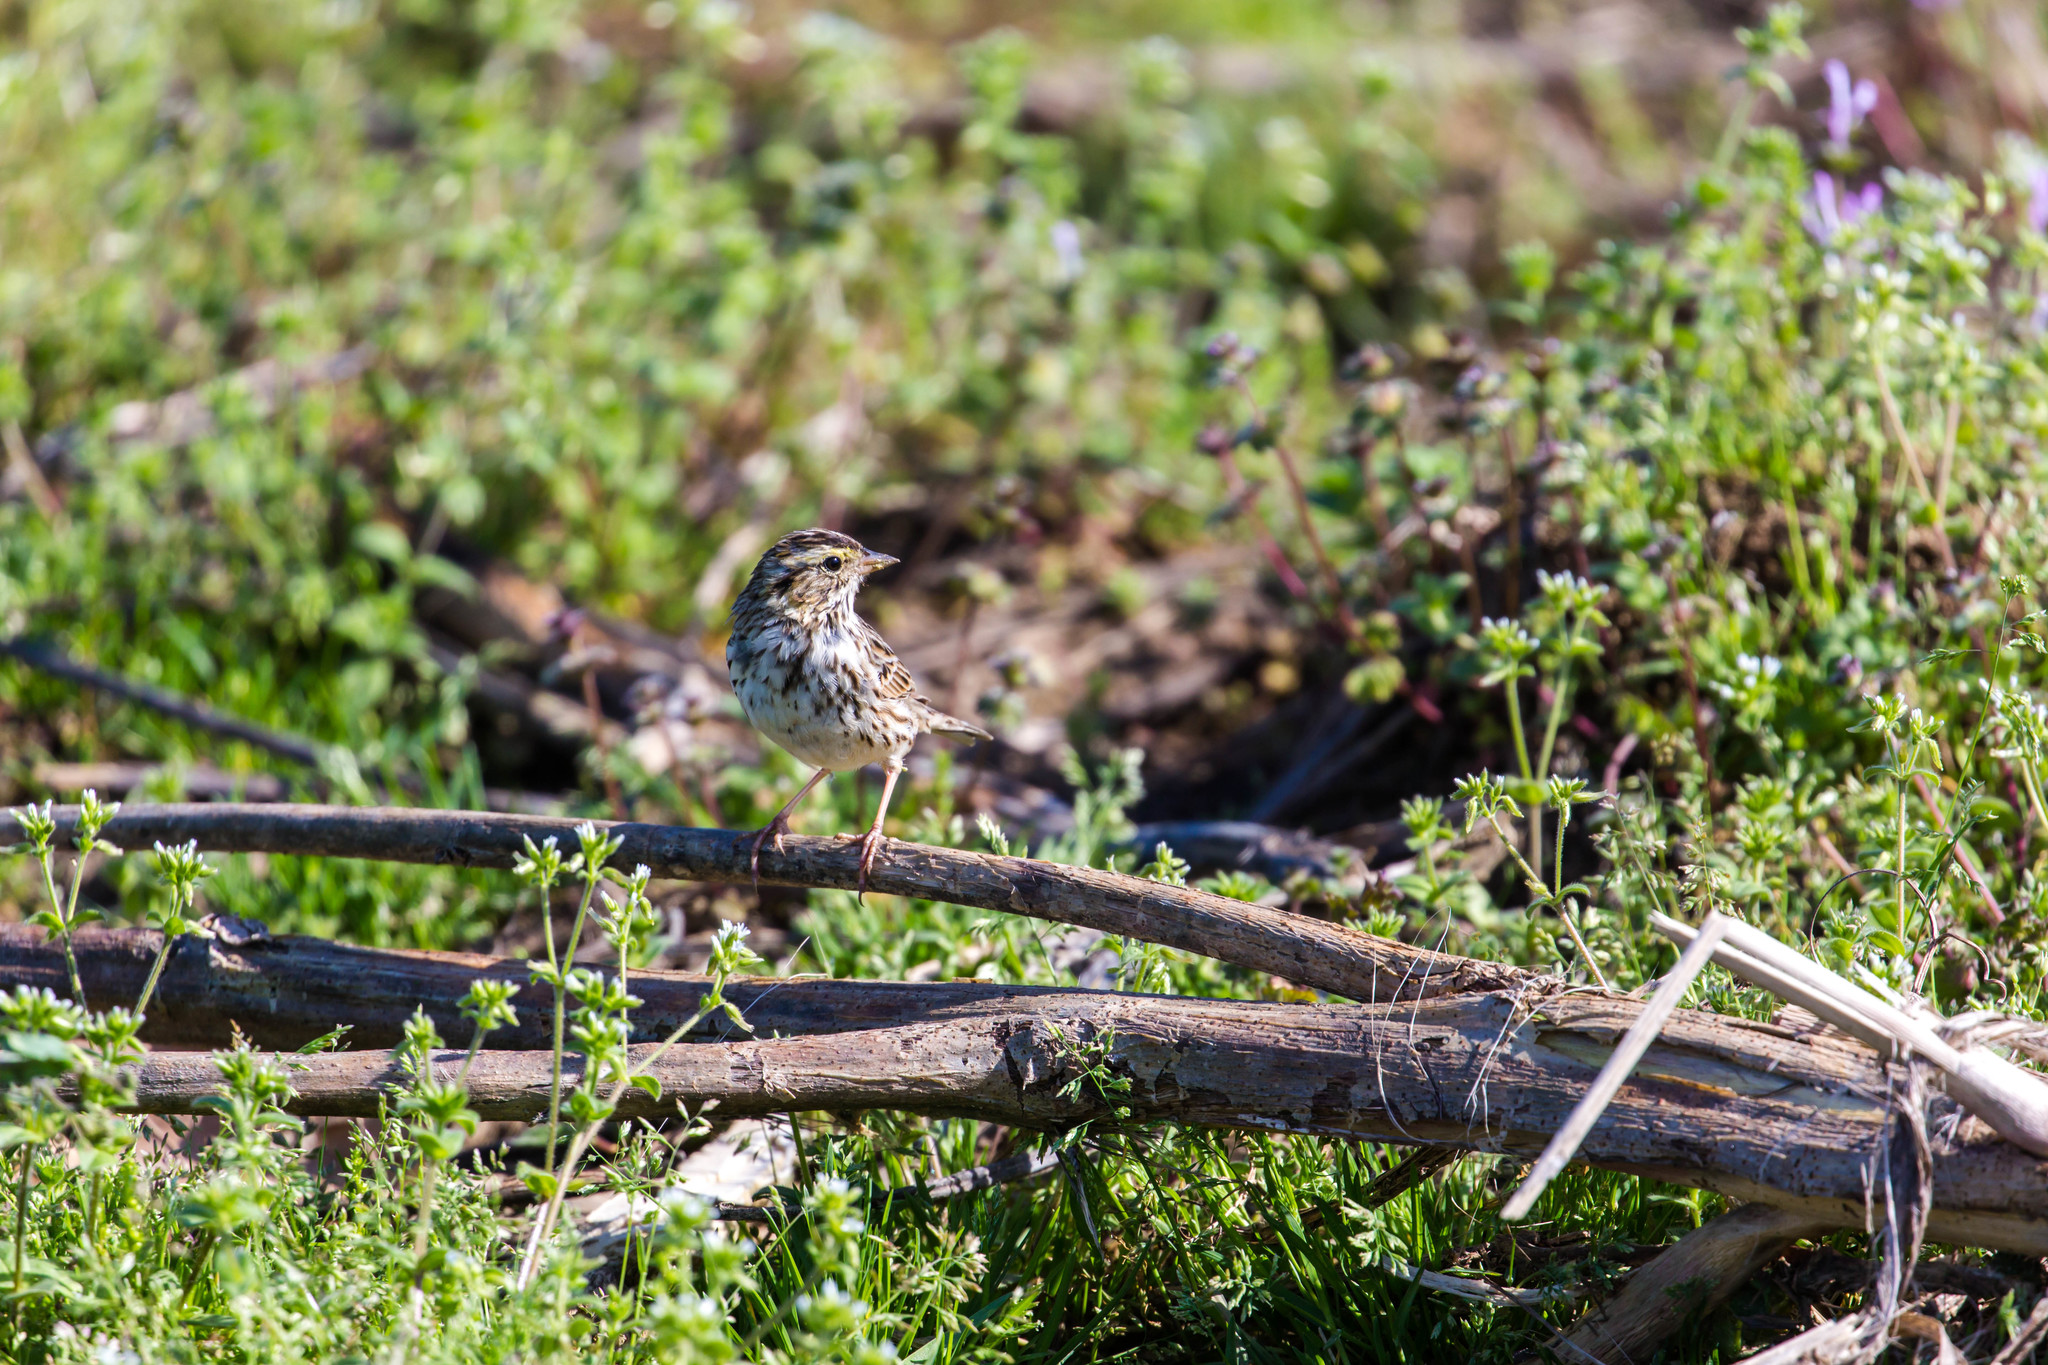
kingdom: Animalia
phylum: Chordata
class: Aves
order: Passeriformes
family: Passerellidae
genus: Passerculus
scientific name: Passerculus sandwichensis
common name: Savannah sparrow
